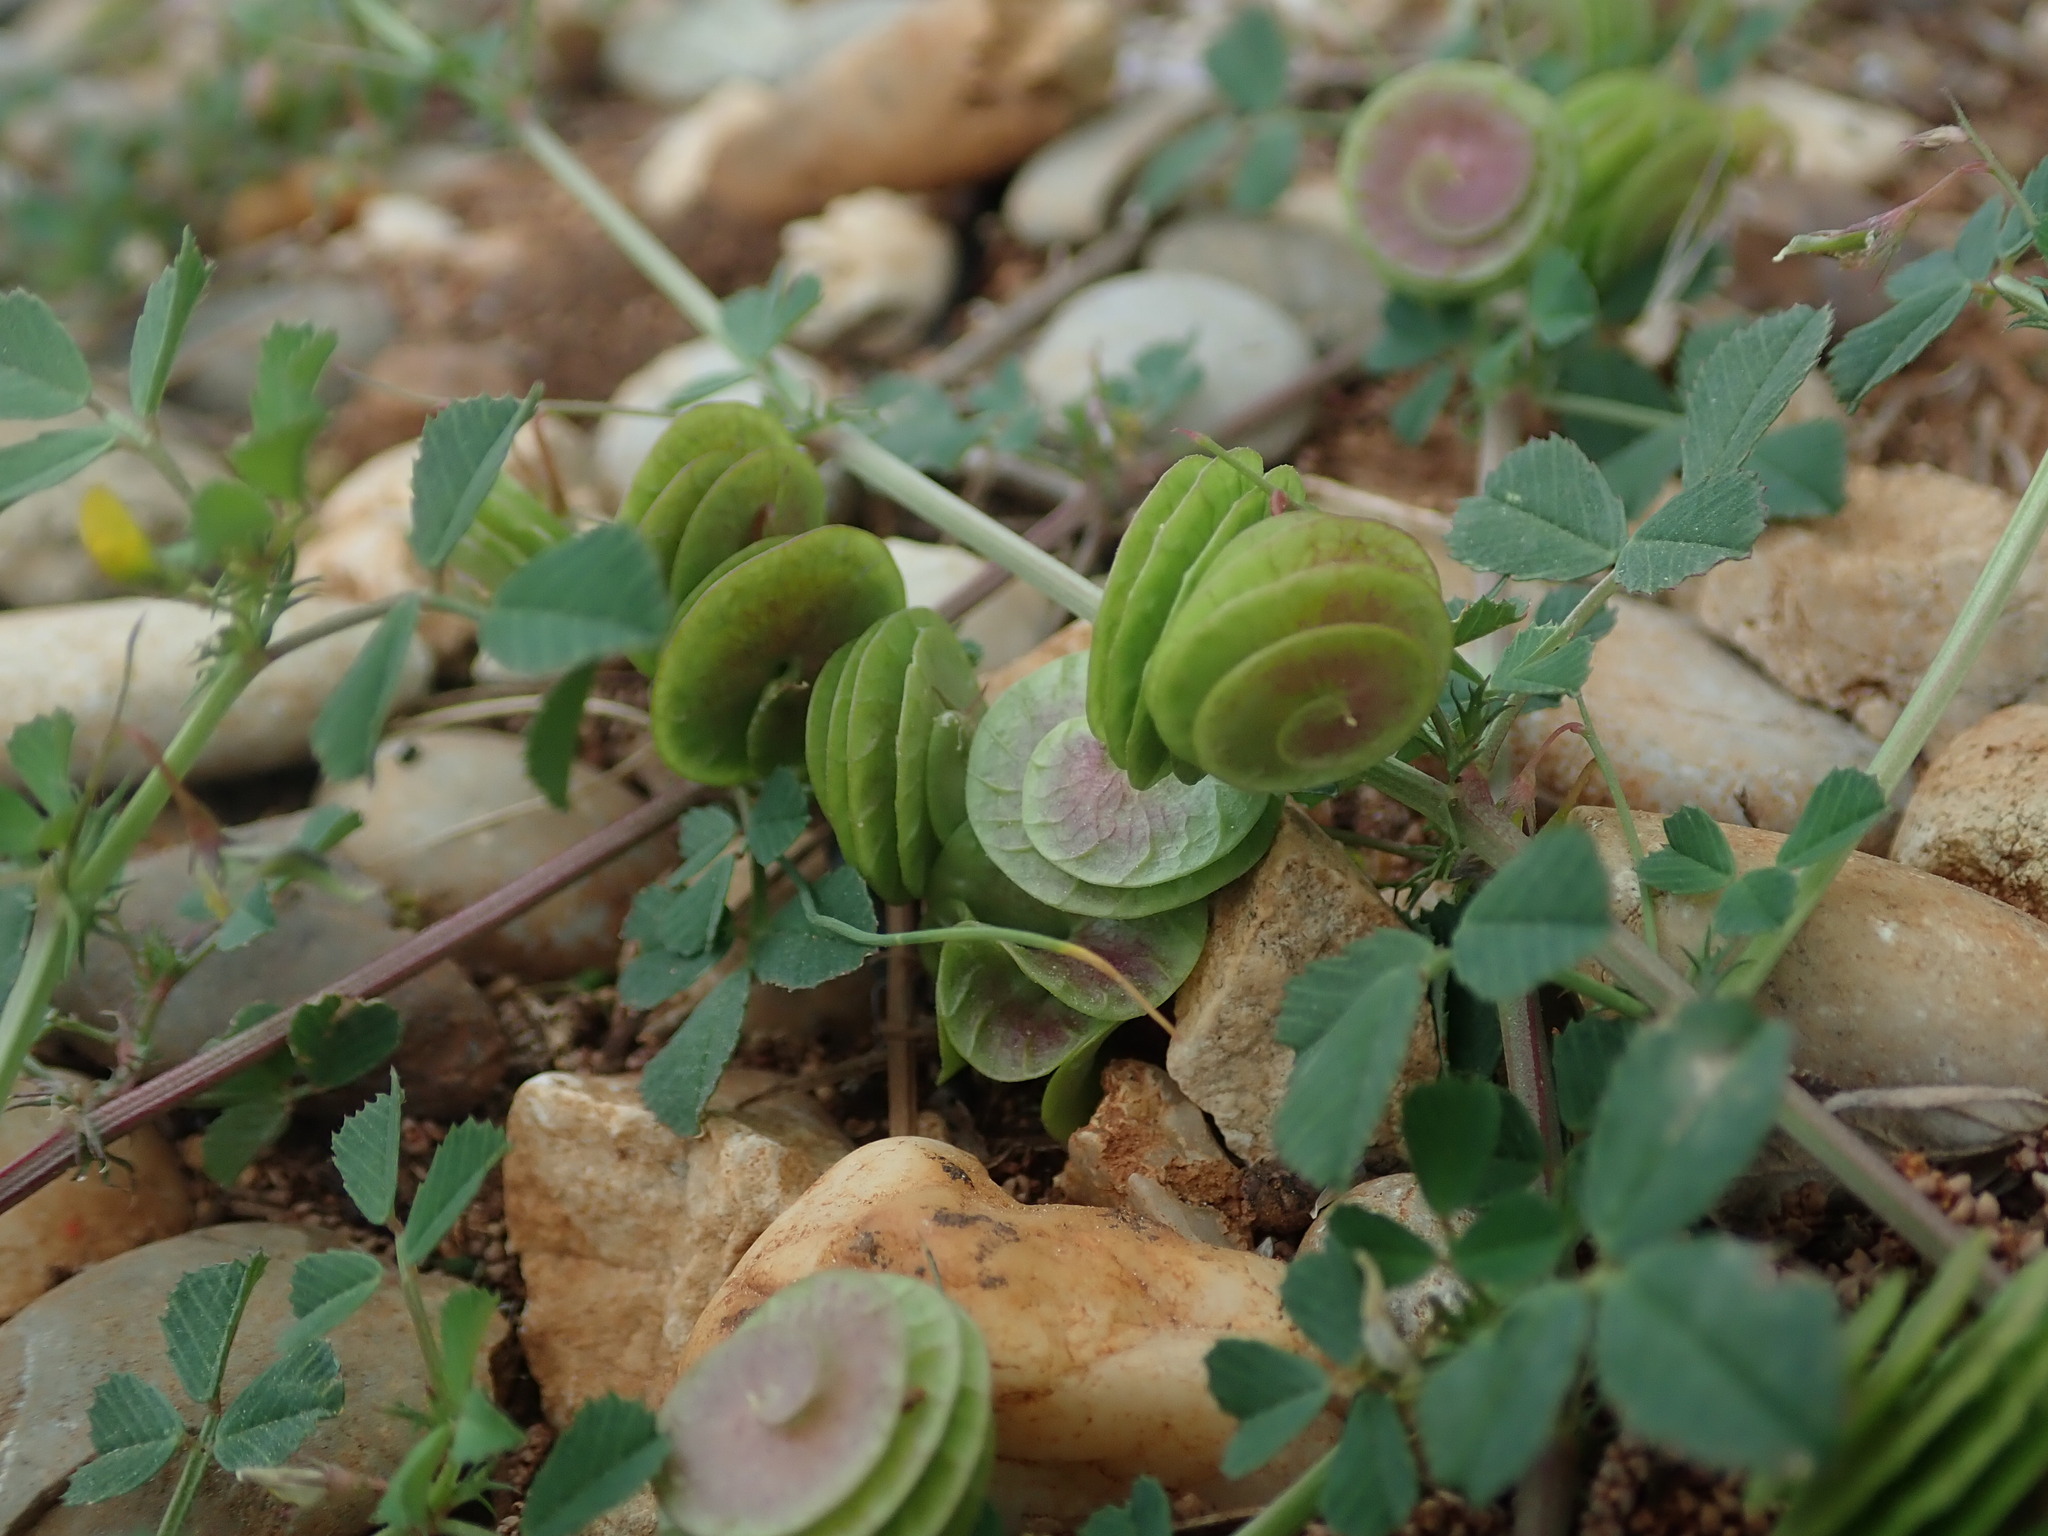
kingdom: Plantae
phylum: Tracheophyta
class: Magnoliopsida
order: Fabales
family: Fabaceae
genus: Medicago
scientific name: Medicago orbicularis
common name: Button medick
